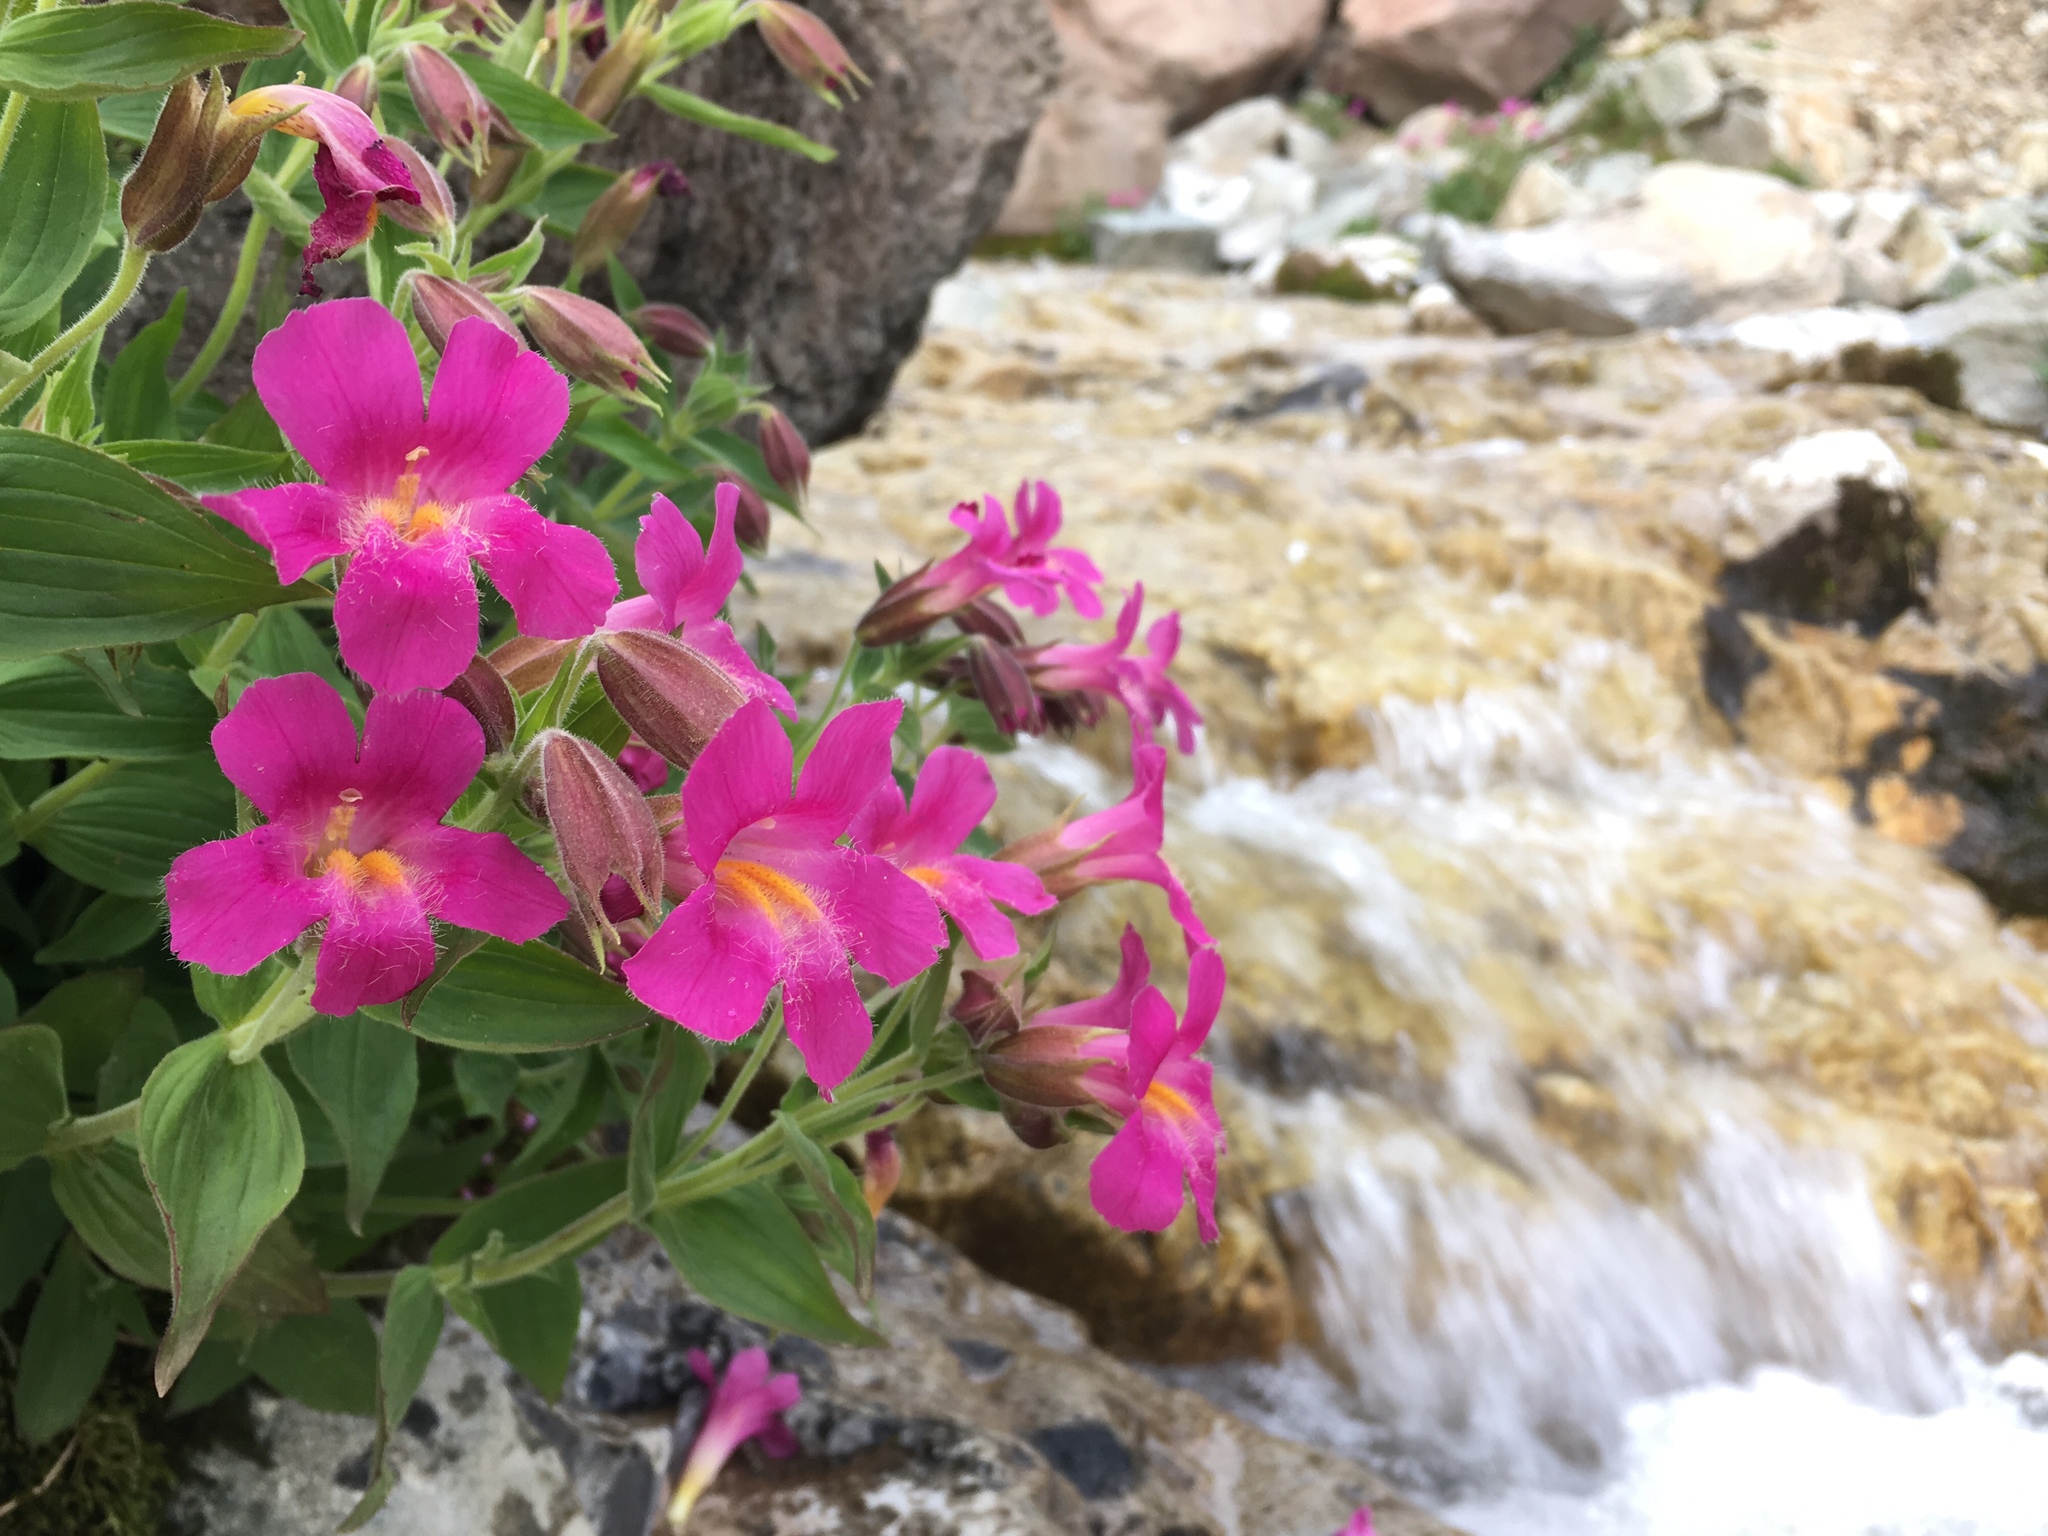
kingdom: Plantae
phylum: Tracheophyta
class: Magnoliopsida
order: Lamiales
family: Phrymaceae
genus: Erythranthe
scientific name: Erythranthe lewisii
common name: Lewis's monkey-flower
